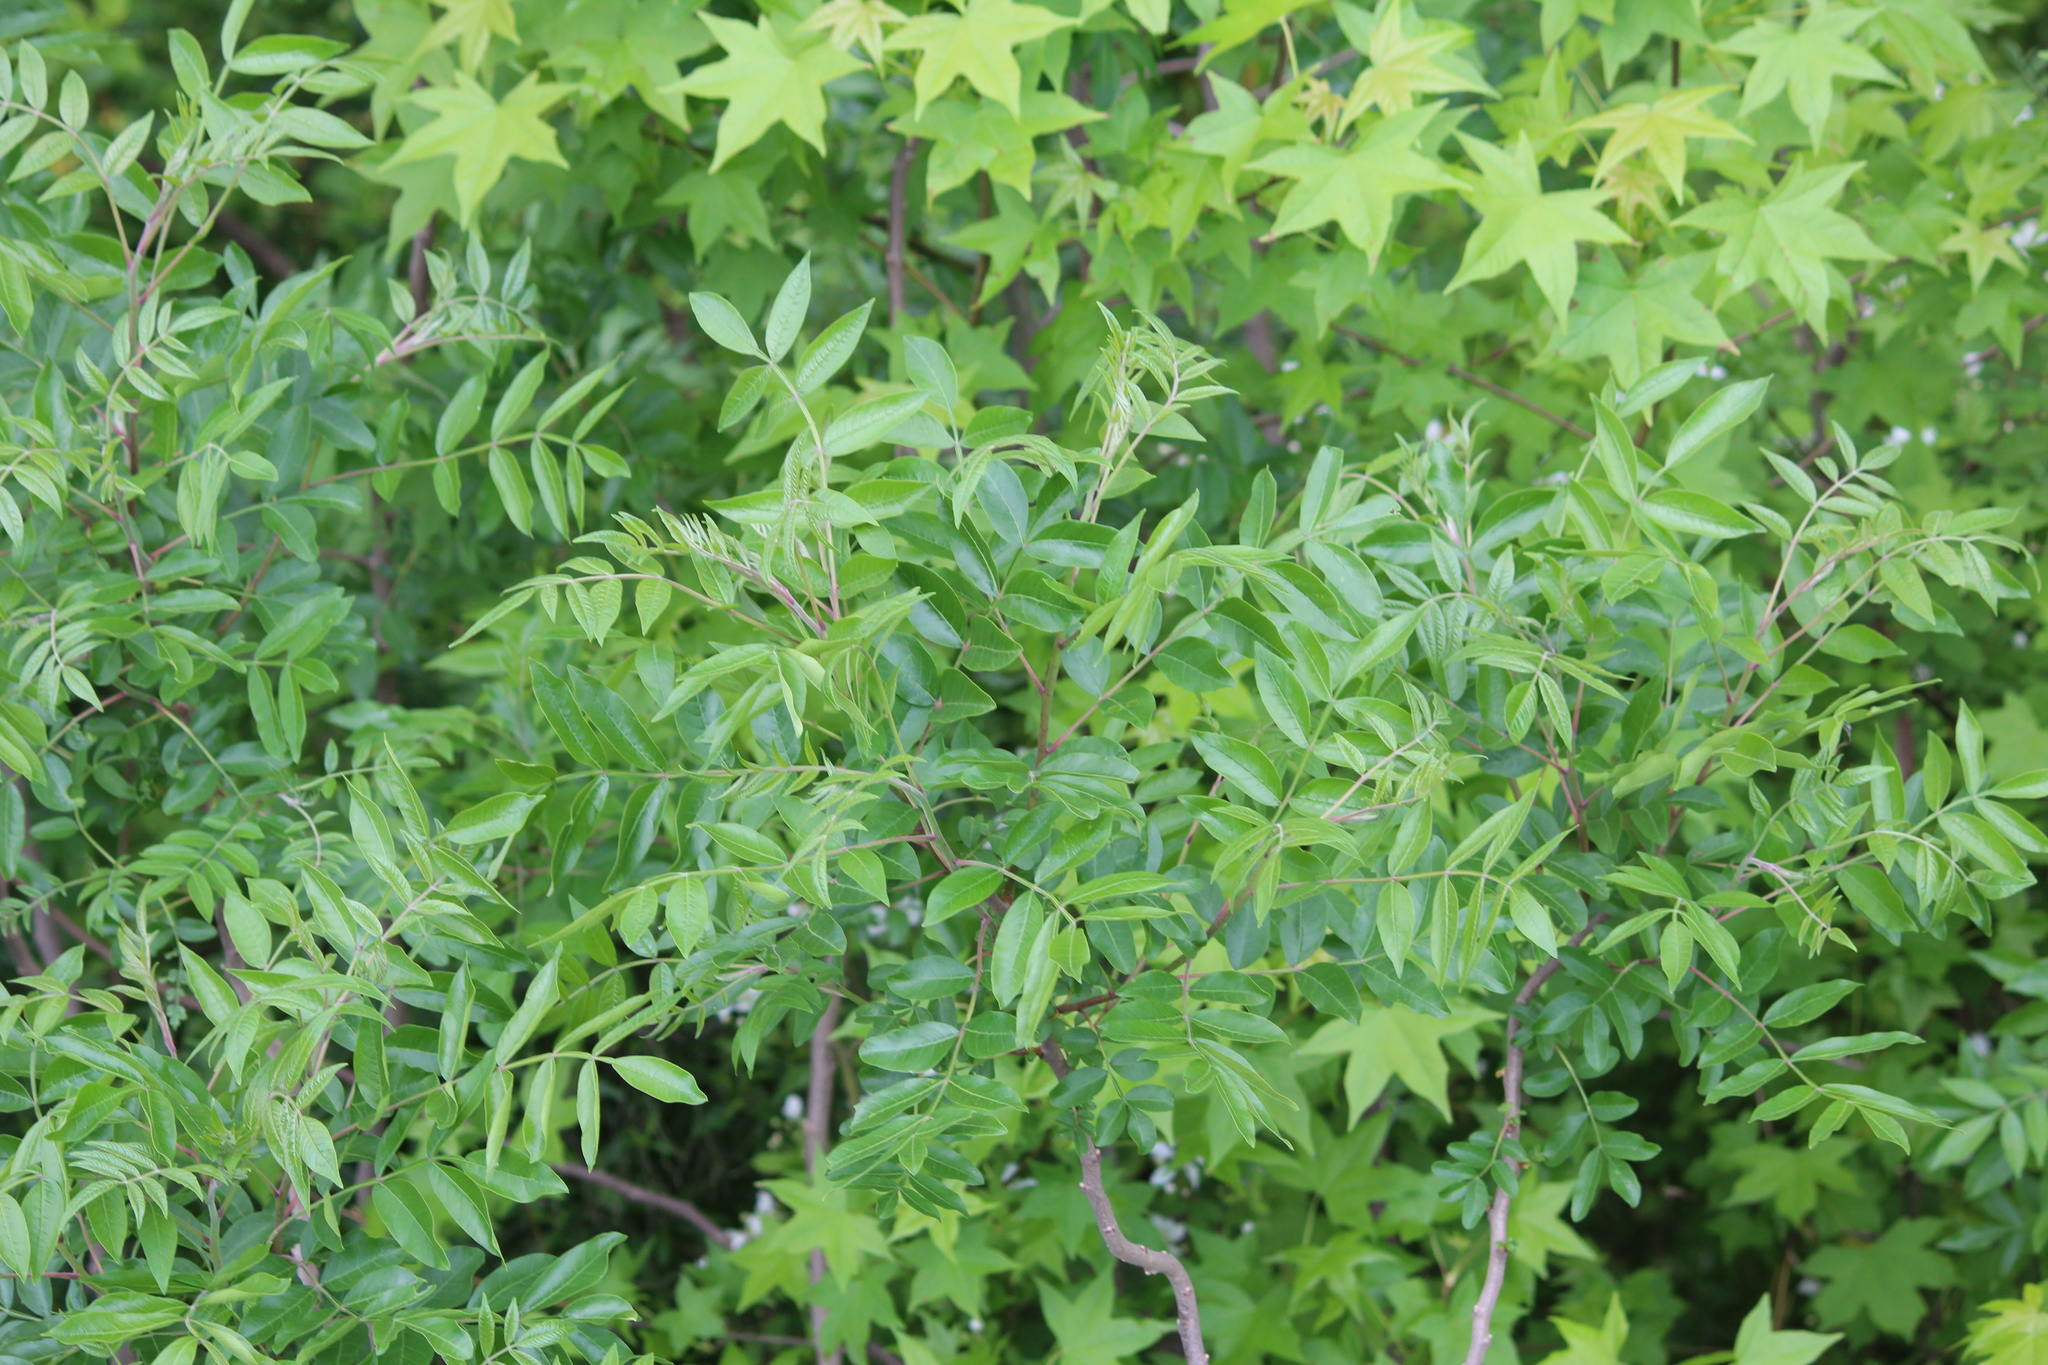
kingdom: Plantae
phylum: Tracheophyta
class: Magnoliopsida
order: Sapindales
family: Anacardiaceae
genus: Rhus
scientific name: Rhus copallina
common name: Shining sumac
